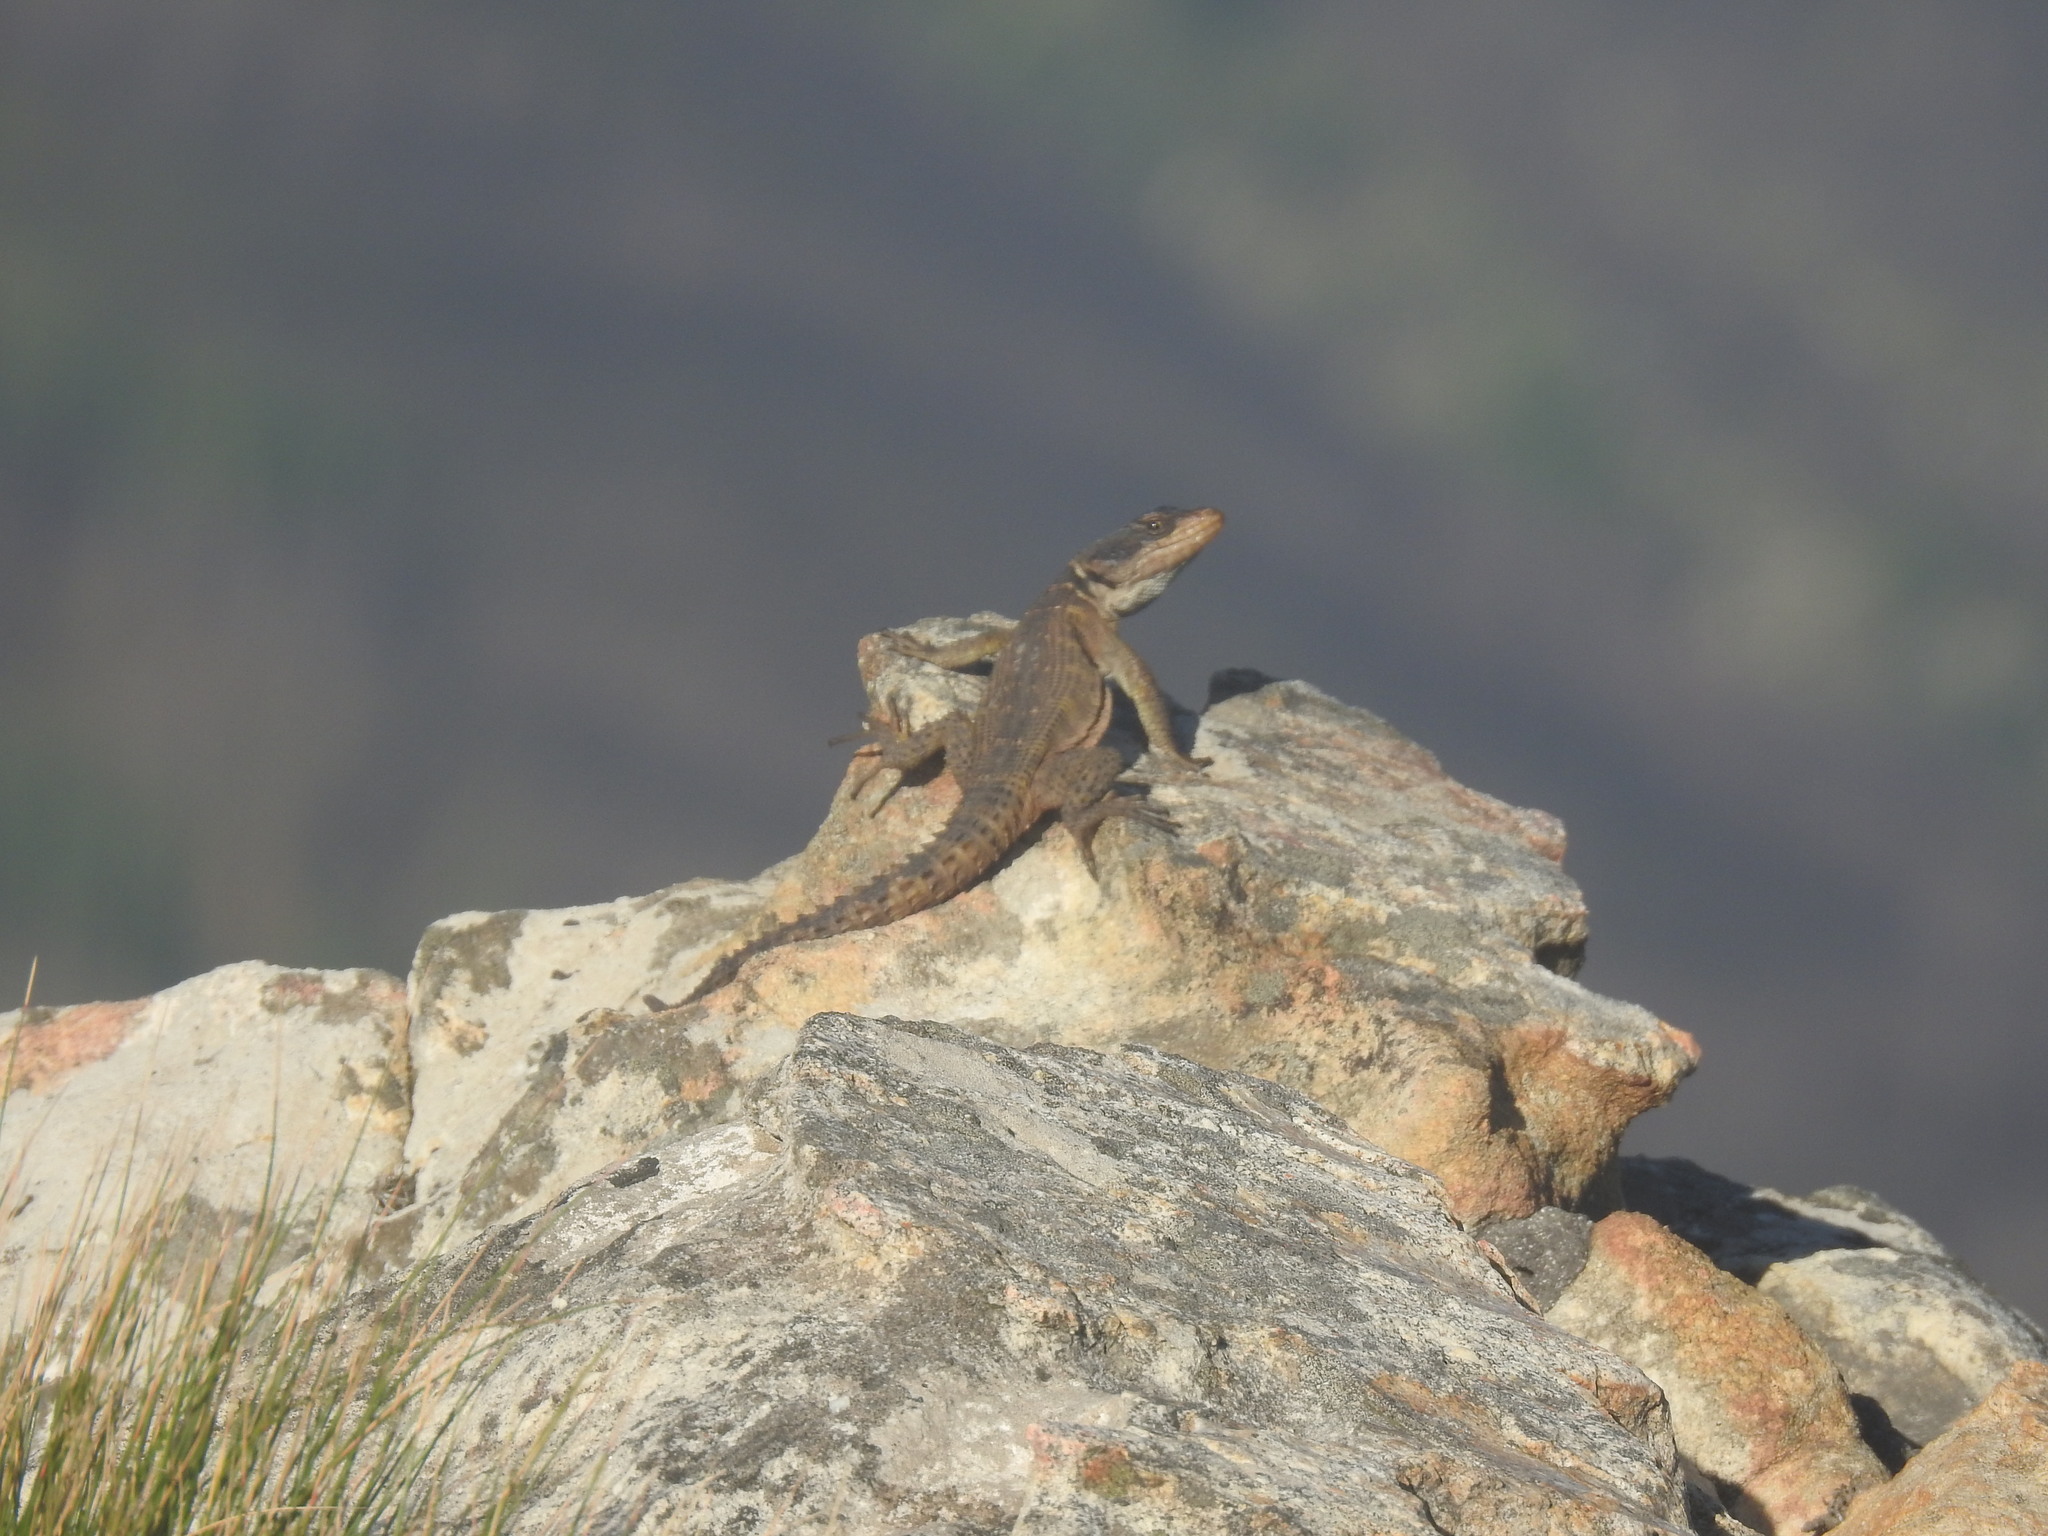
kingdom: Animalia
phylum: Chordata
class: Squamata
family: Cordylidae
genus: Pseudocordylus
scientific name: Pseudocordylus microlepidotus
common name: Cape crag lizard
